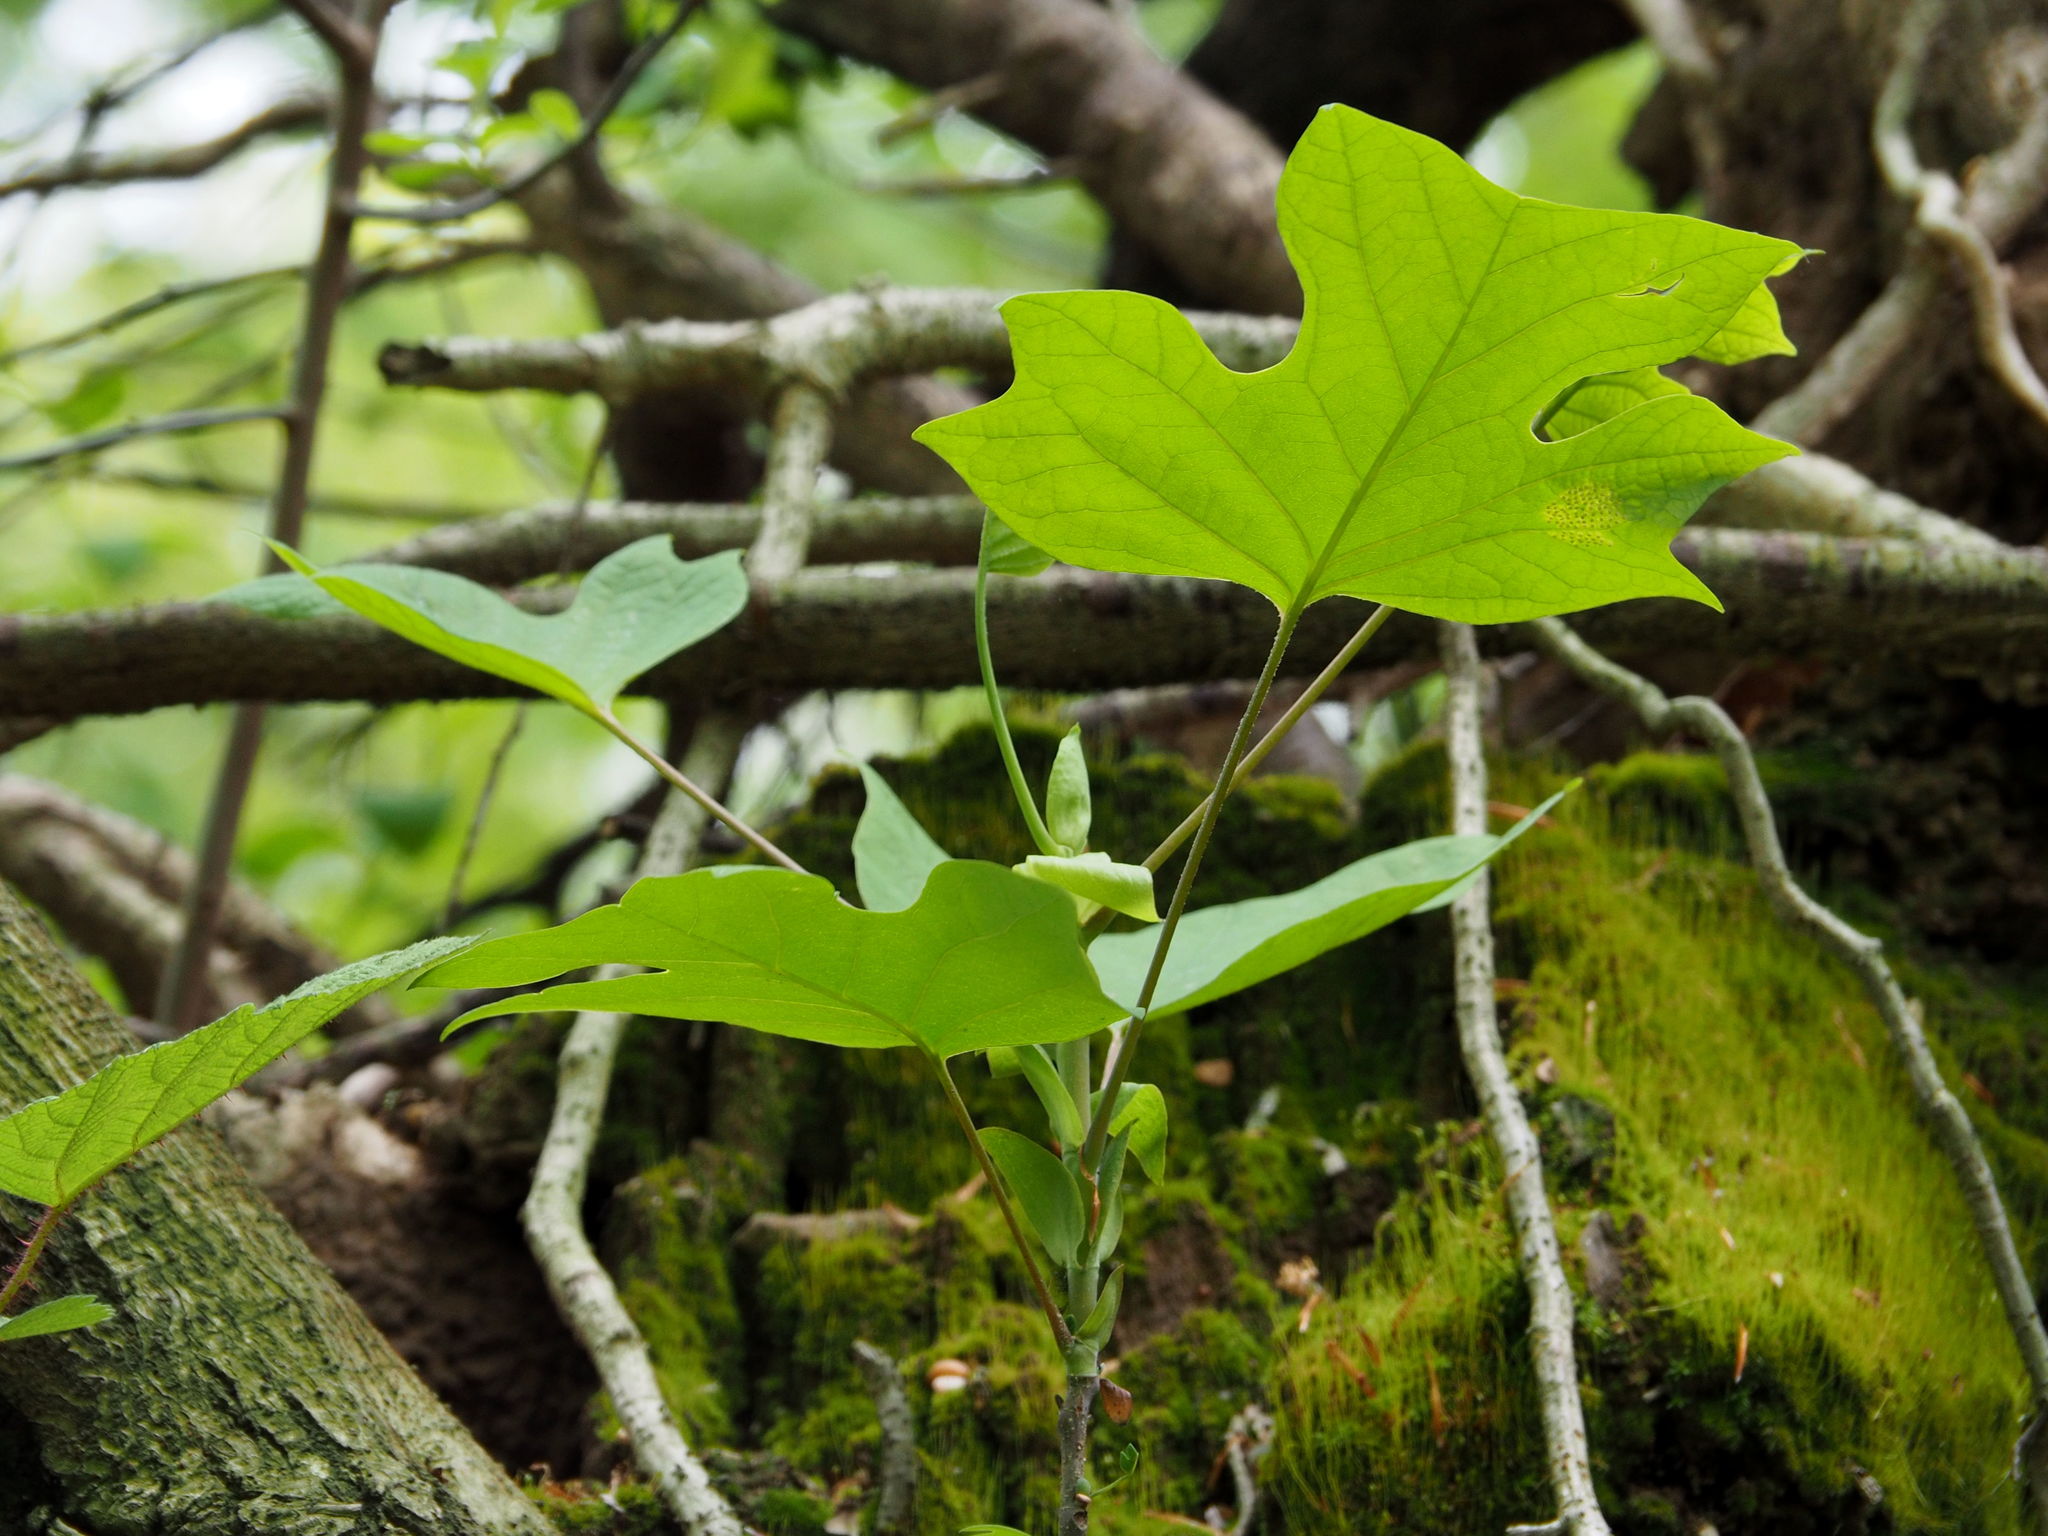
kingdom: Plantae
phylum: Tracheophyta
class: Magnoliopsida
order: Magnoliales
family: Magnoliaceae
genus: Liriodendron
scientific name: Liriodendron tulipifera
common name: Tulip tree
